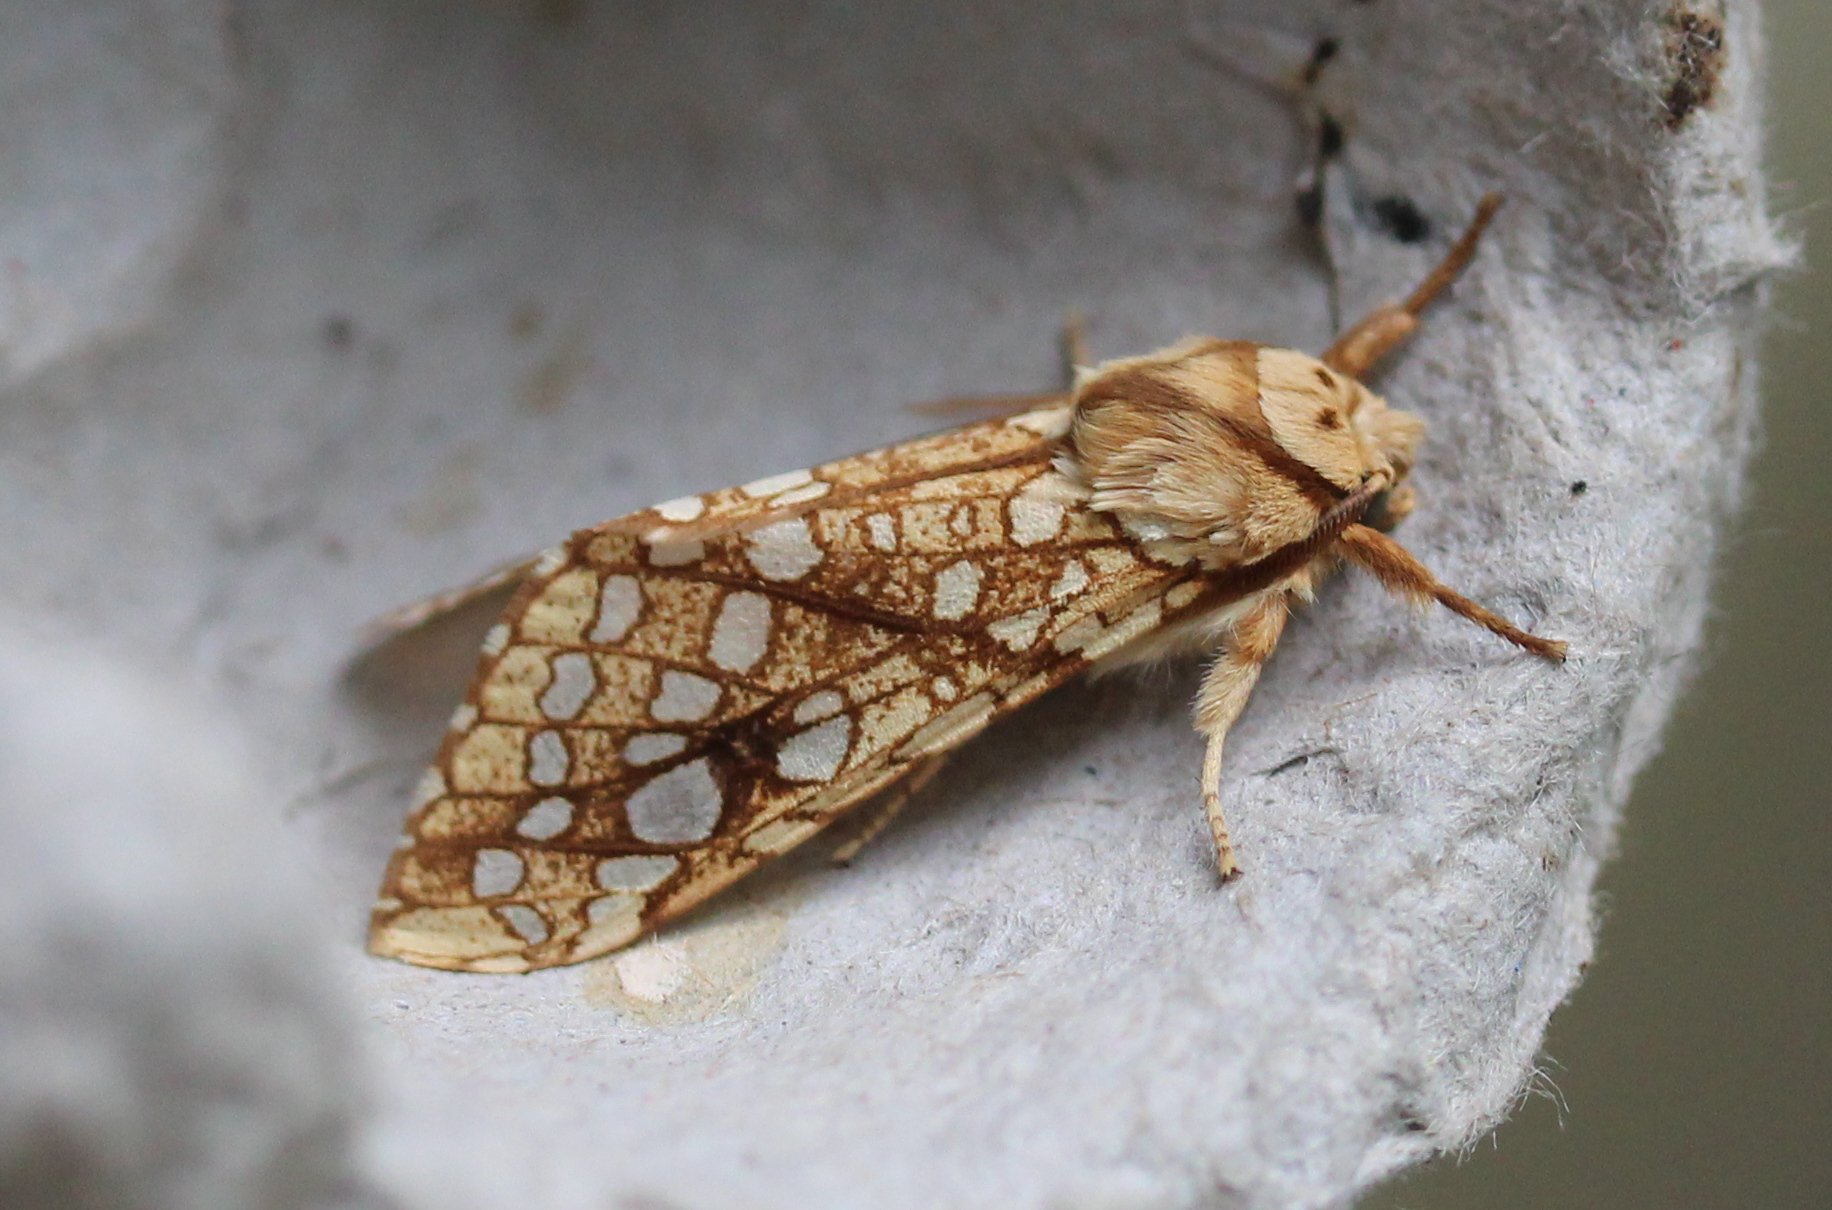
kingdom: Animalia
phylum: Arthropoda
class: Insecta
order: Lepidoptera
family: Erebidae
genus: Lophocampa
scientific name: Lophocampa caryae
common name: Hickory tussock moth
